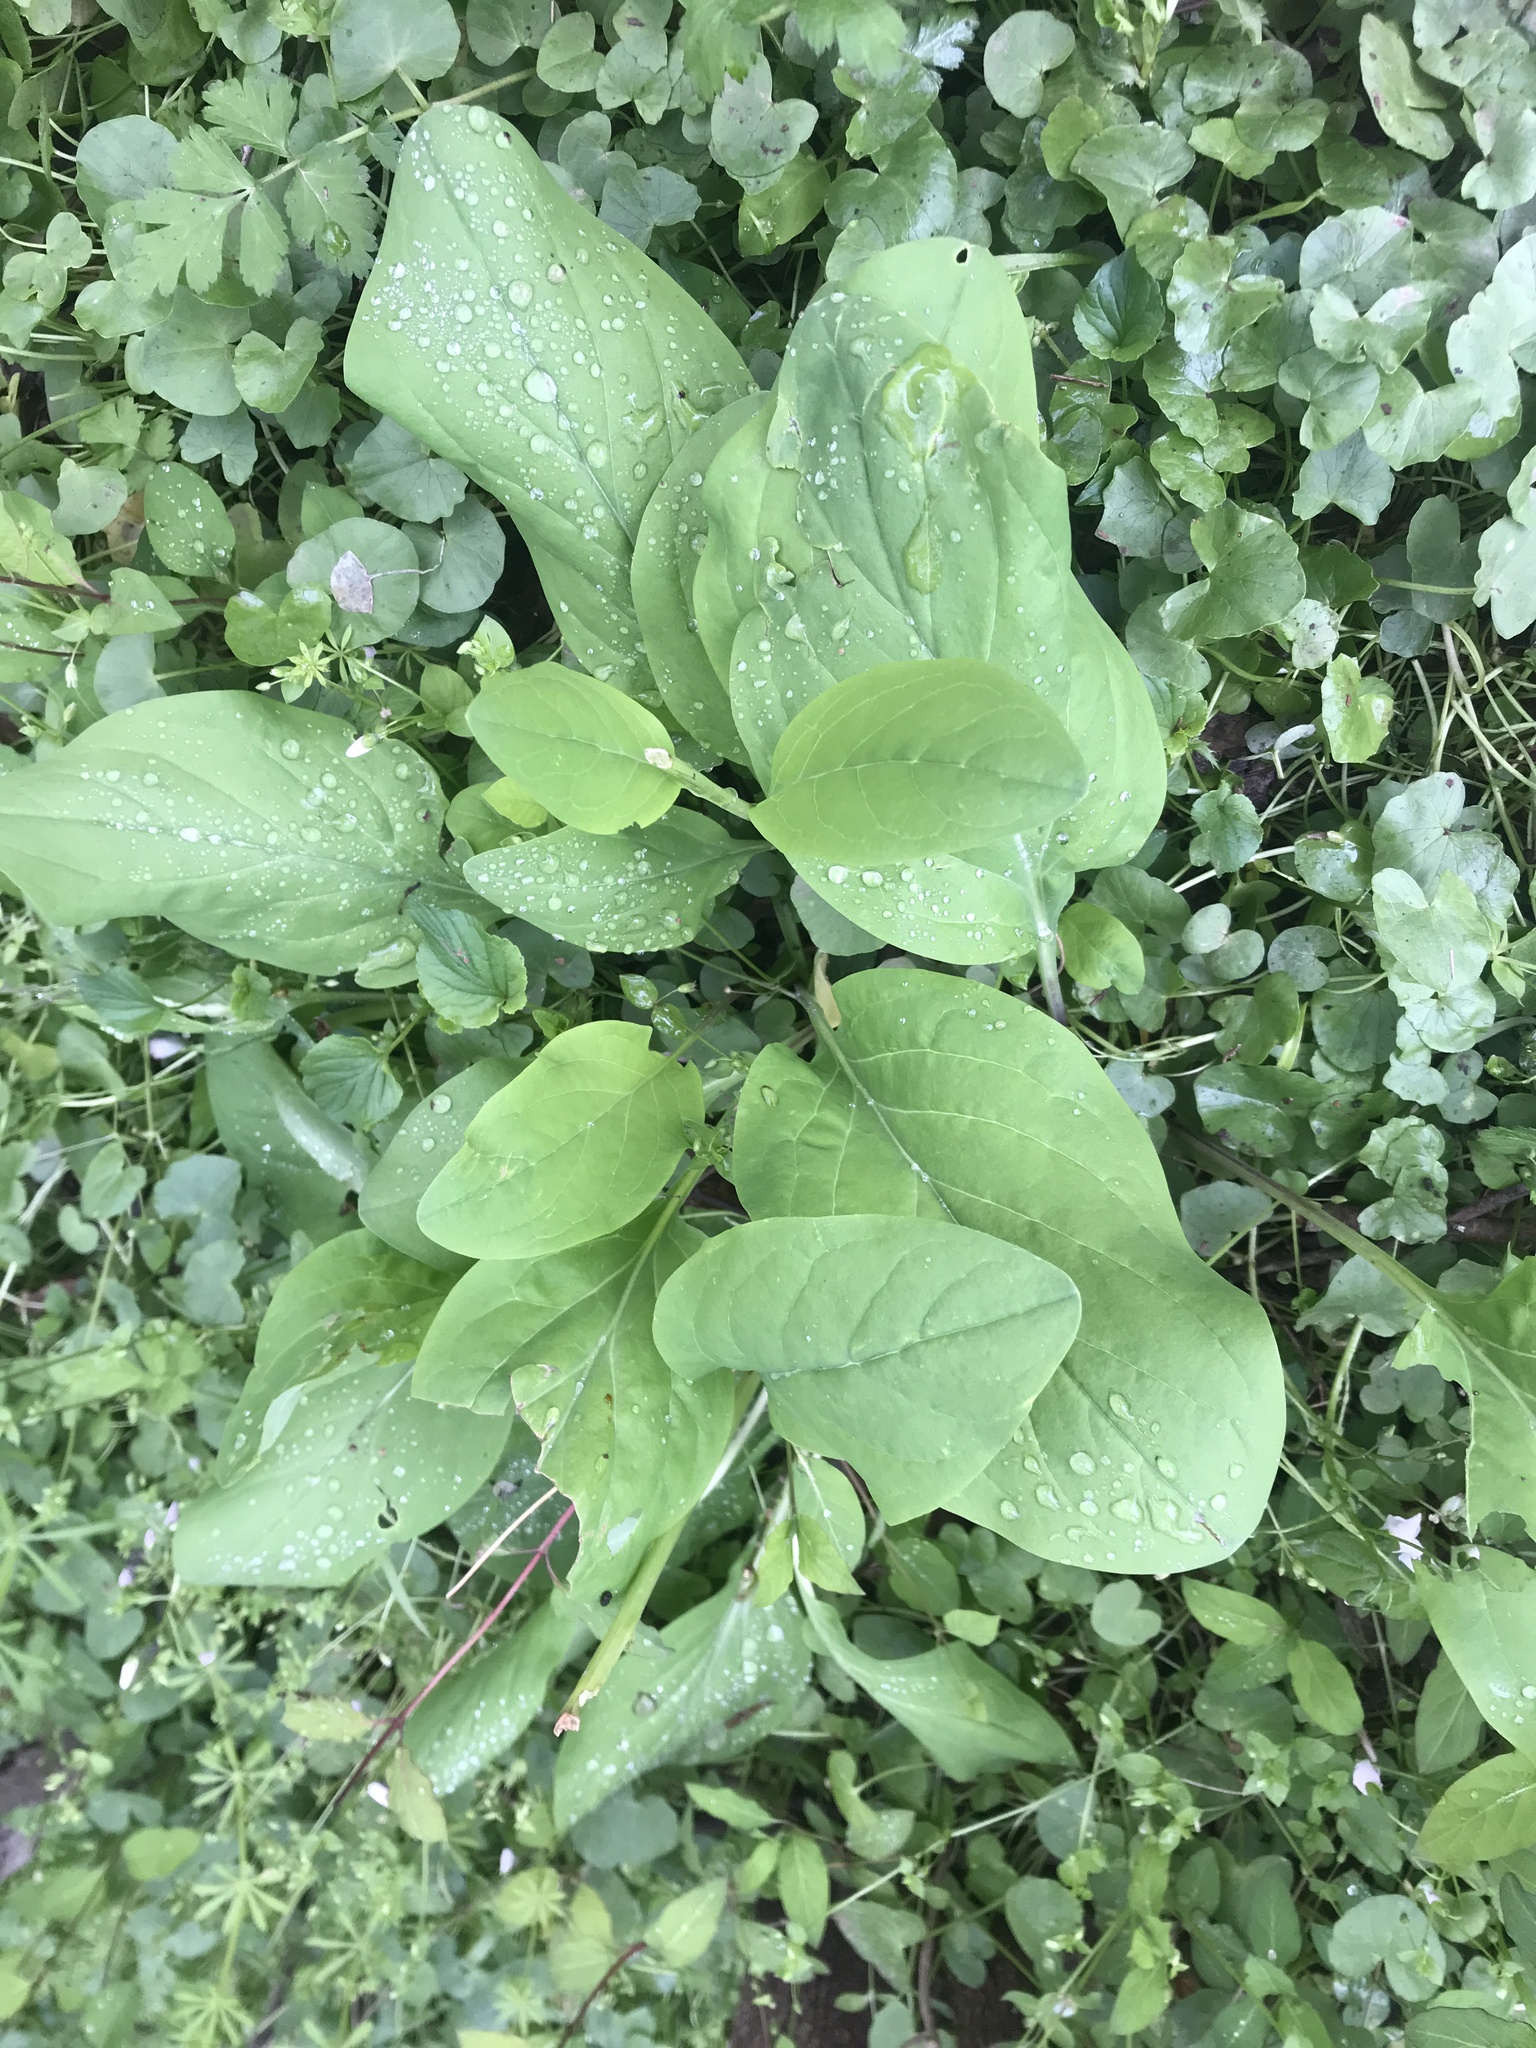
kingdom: Plantae
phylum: Tracheophyta
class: Magnoliopsida
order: Boraginales
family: Boraginaceae
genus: Mertensia
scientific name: Mertensia virginica
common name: Virginia bluebells
